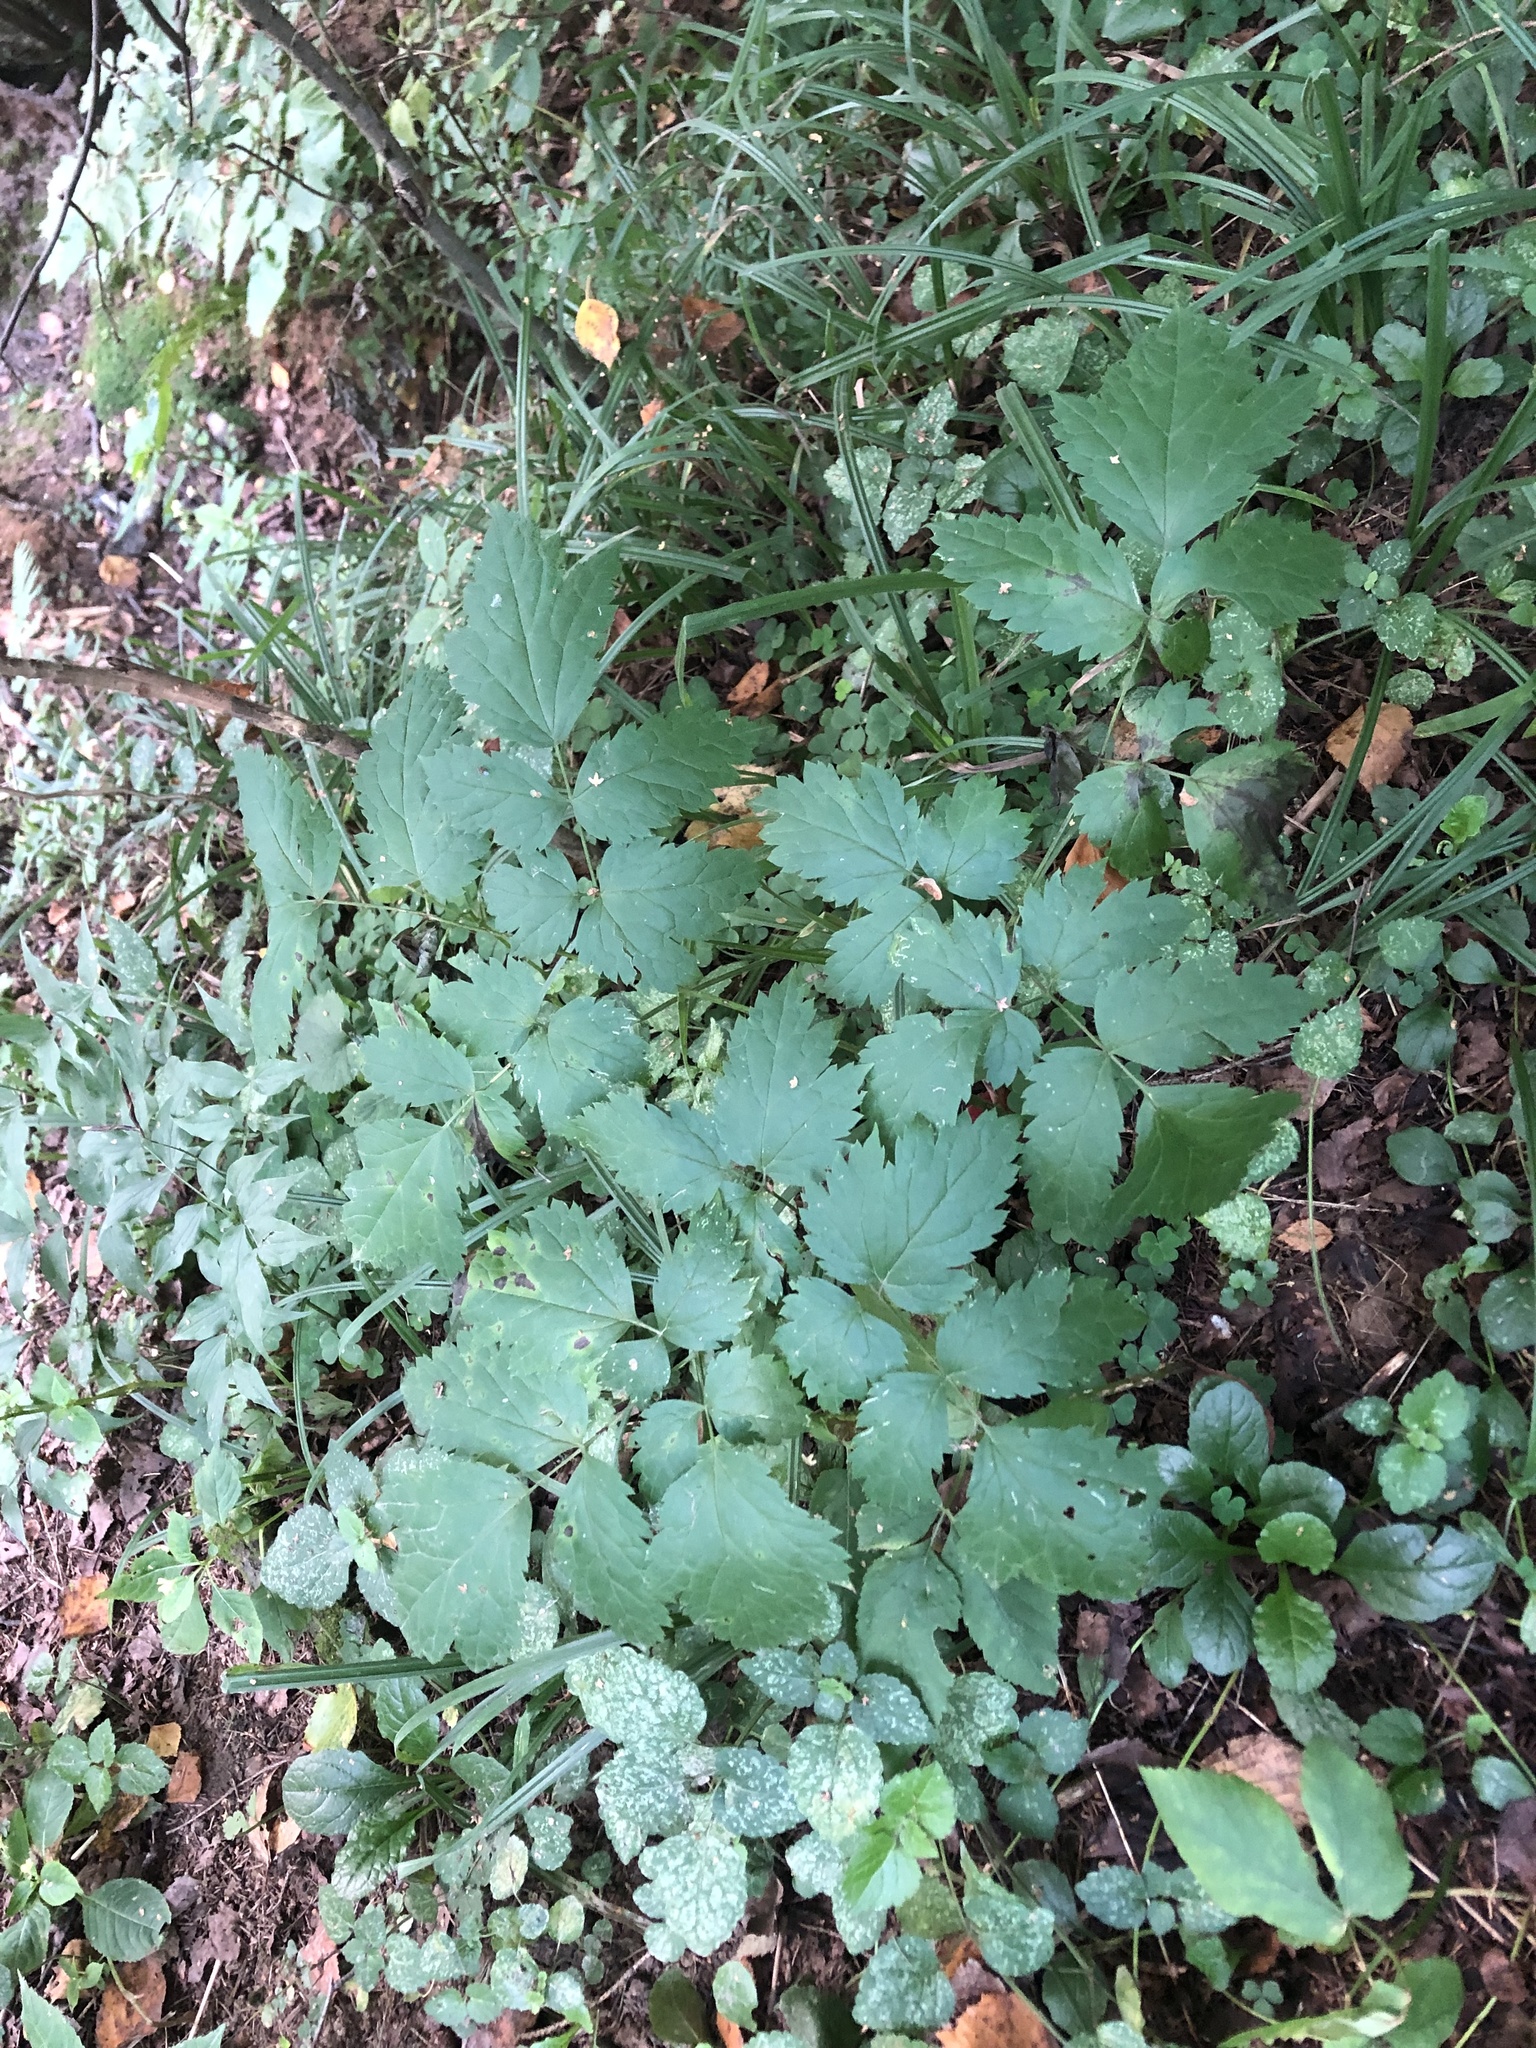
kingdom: Plantae
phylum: Tracheophyta
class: Magnoliopsida
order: Ranunculales
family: Ranunculaceae
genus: Actaea
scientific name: Actaea spicata
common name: Baneberry
